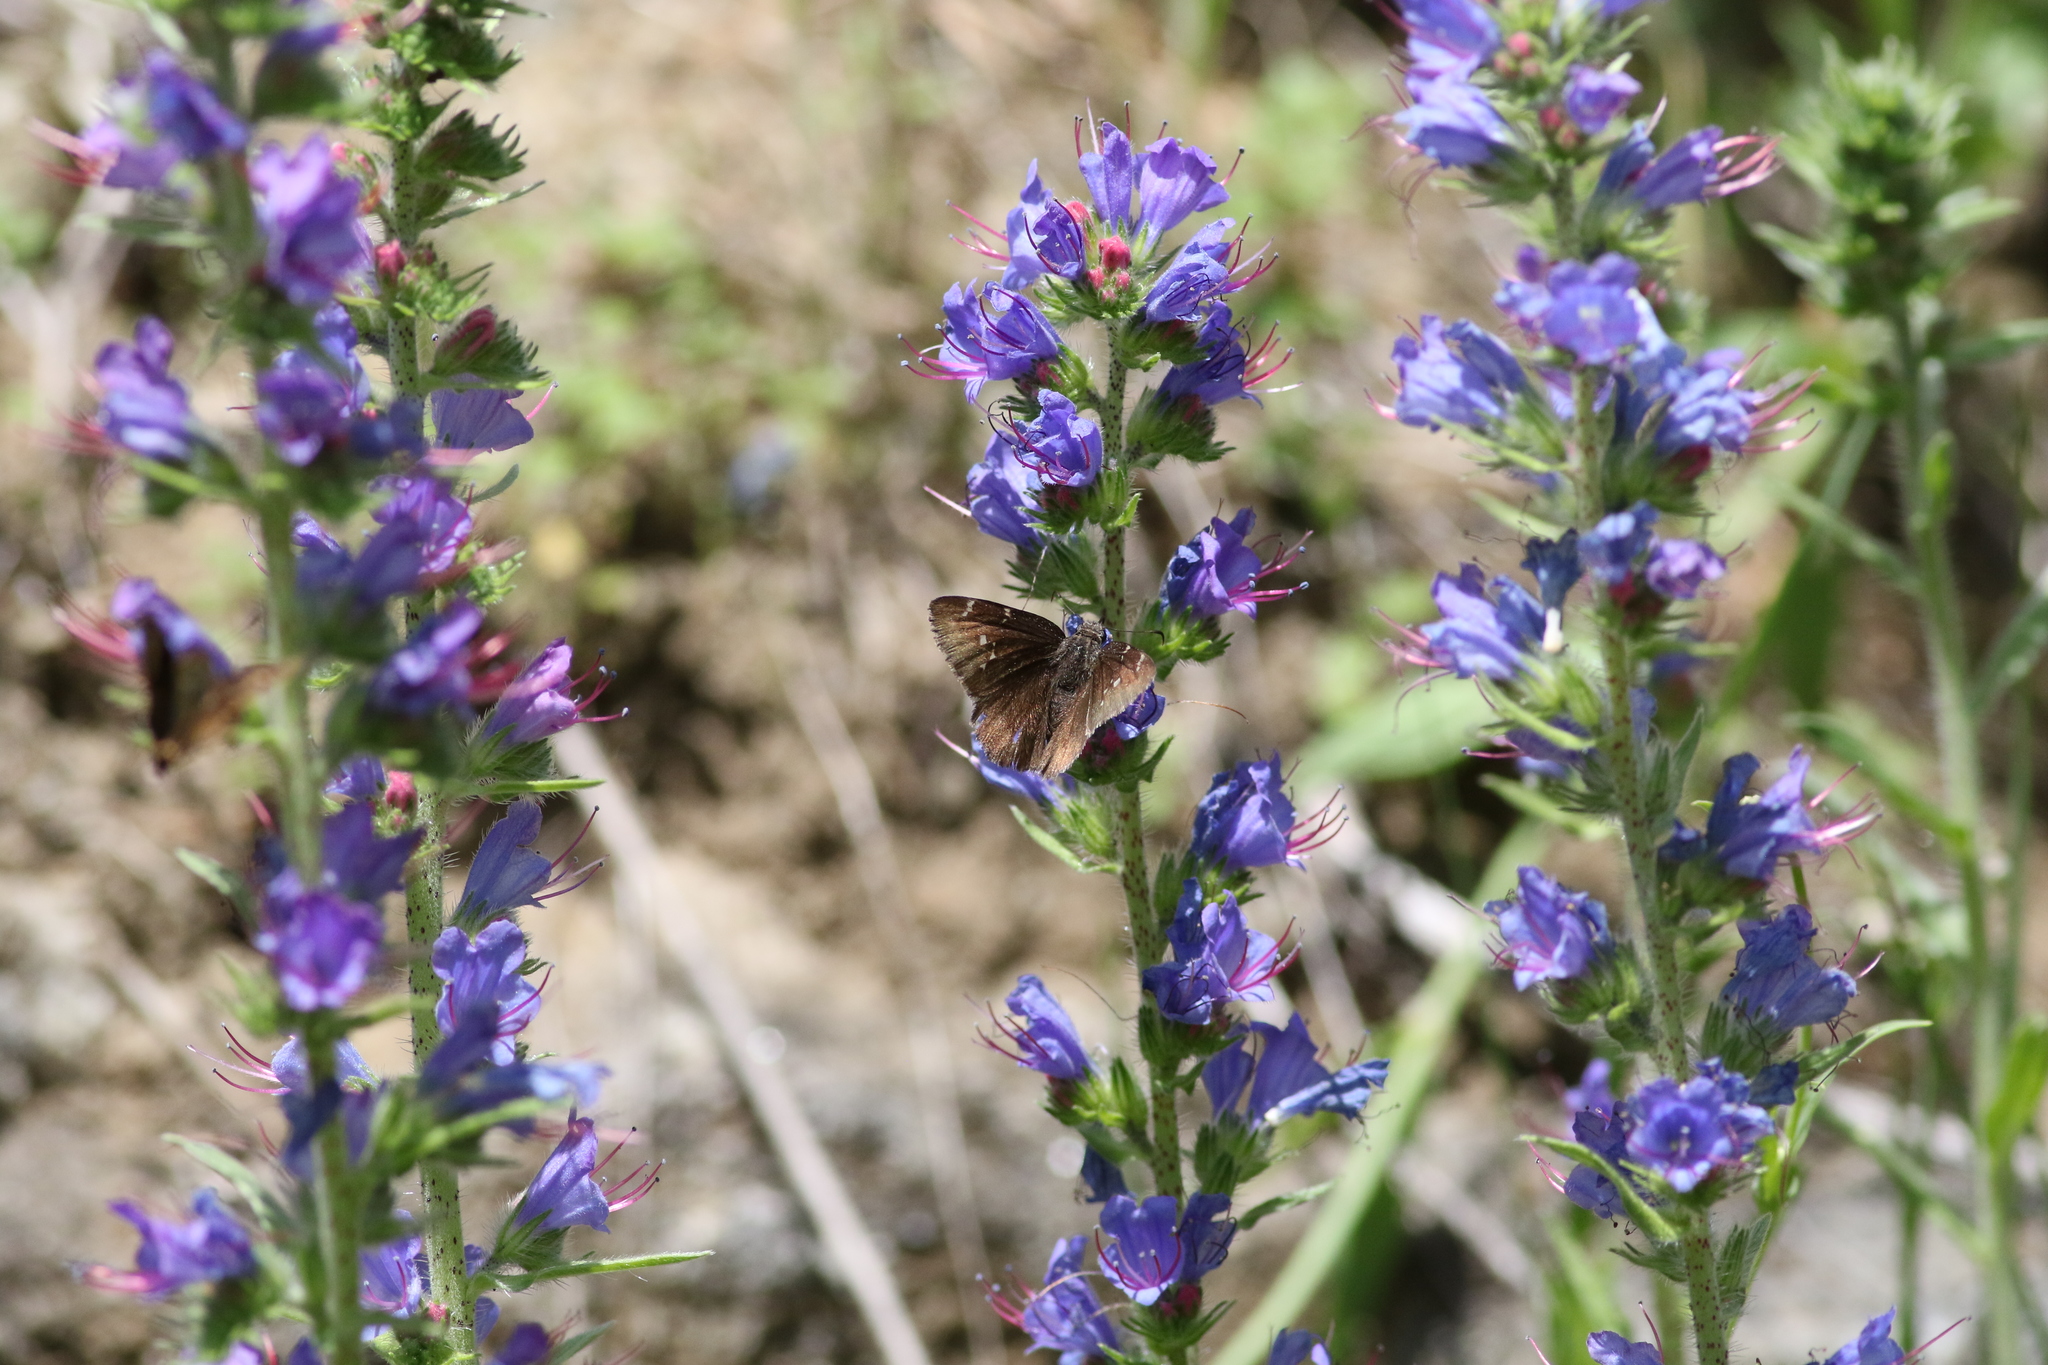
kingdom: Animalia
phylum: Arthropoda
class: Insecta
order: Lepidoptera
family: Hesperiidae
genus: Thorybes
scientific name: Thorybes pylades
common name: Northern cloudywing
